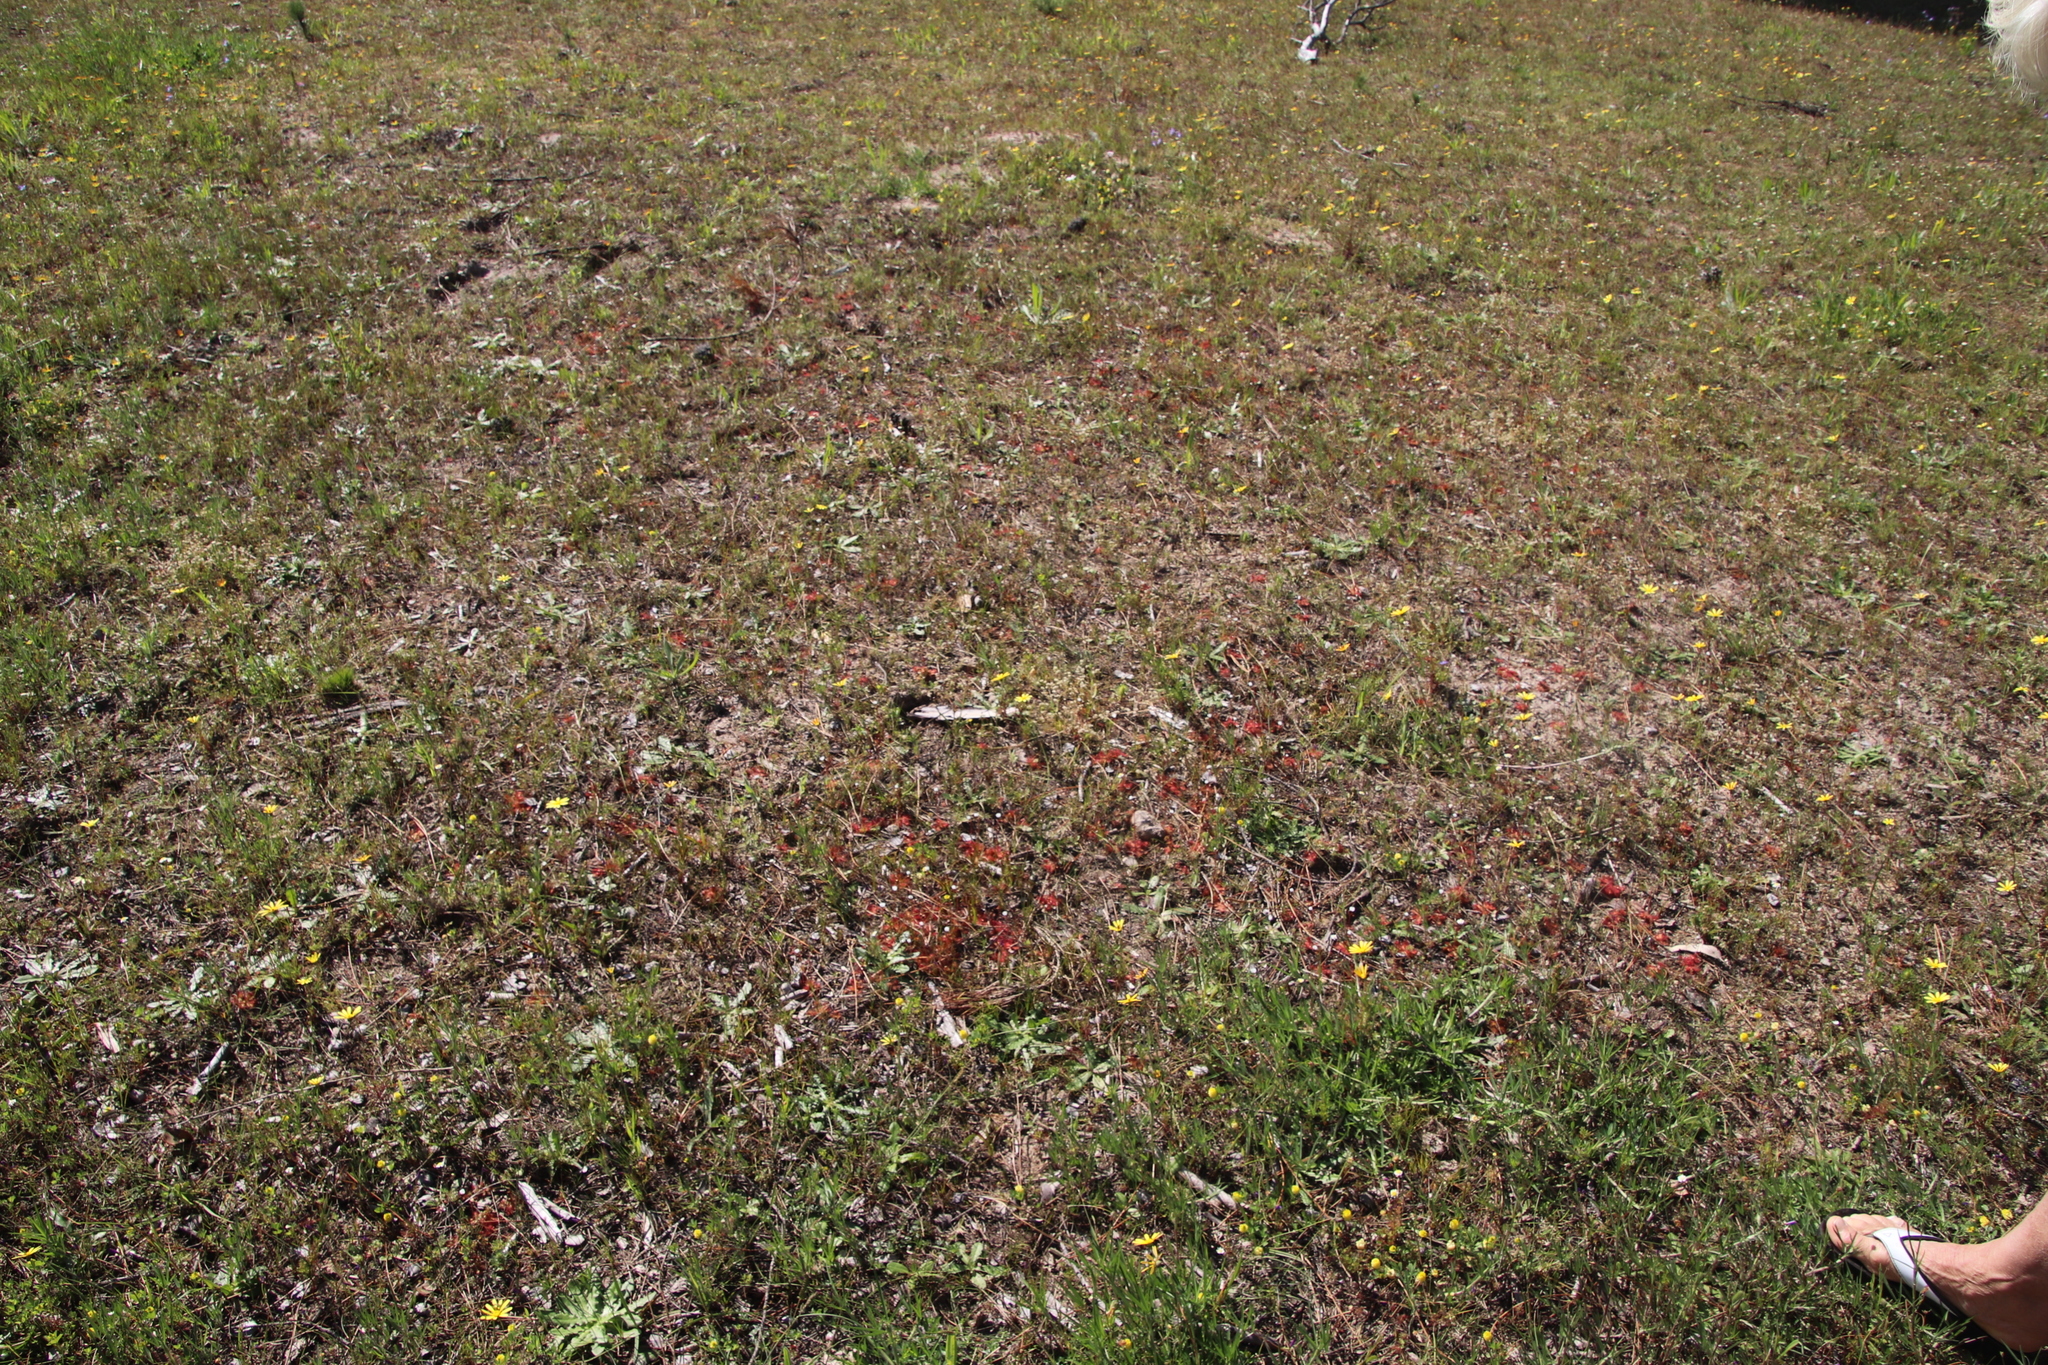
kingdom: Plantae
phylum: Tracheophyta
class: Magnoliopsida
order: Caryophyllales
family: Droseraceae
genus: Drosera
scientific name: Drosera trinervia
